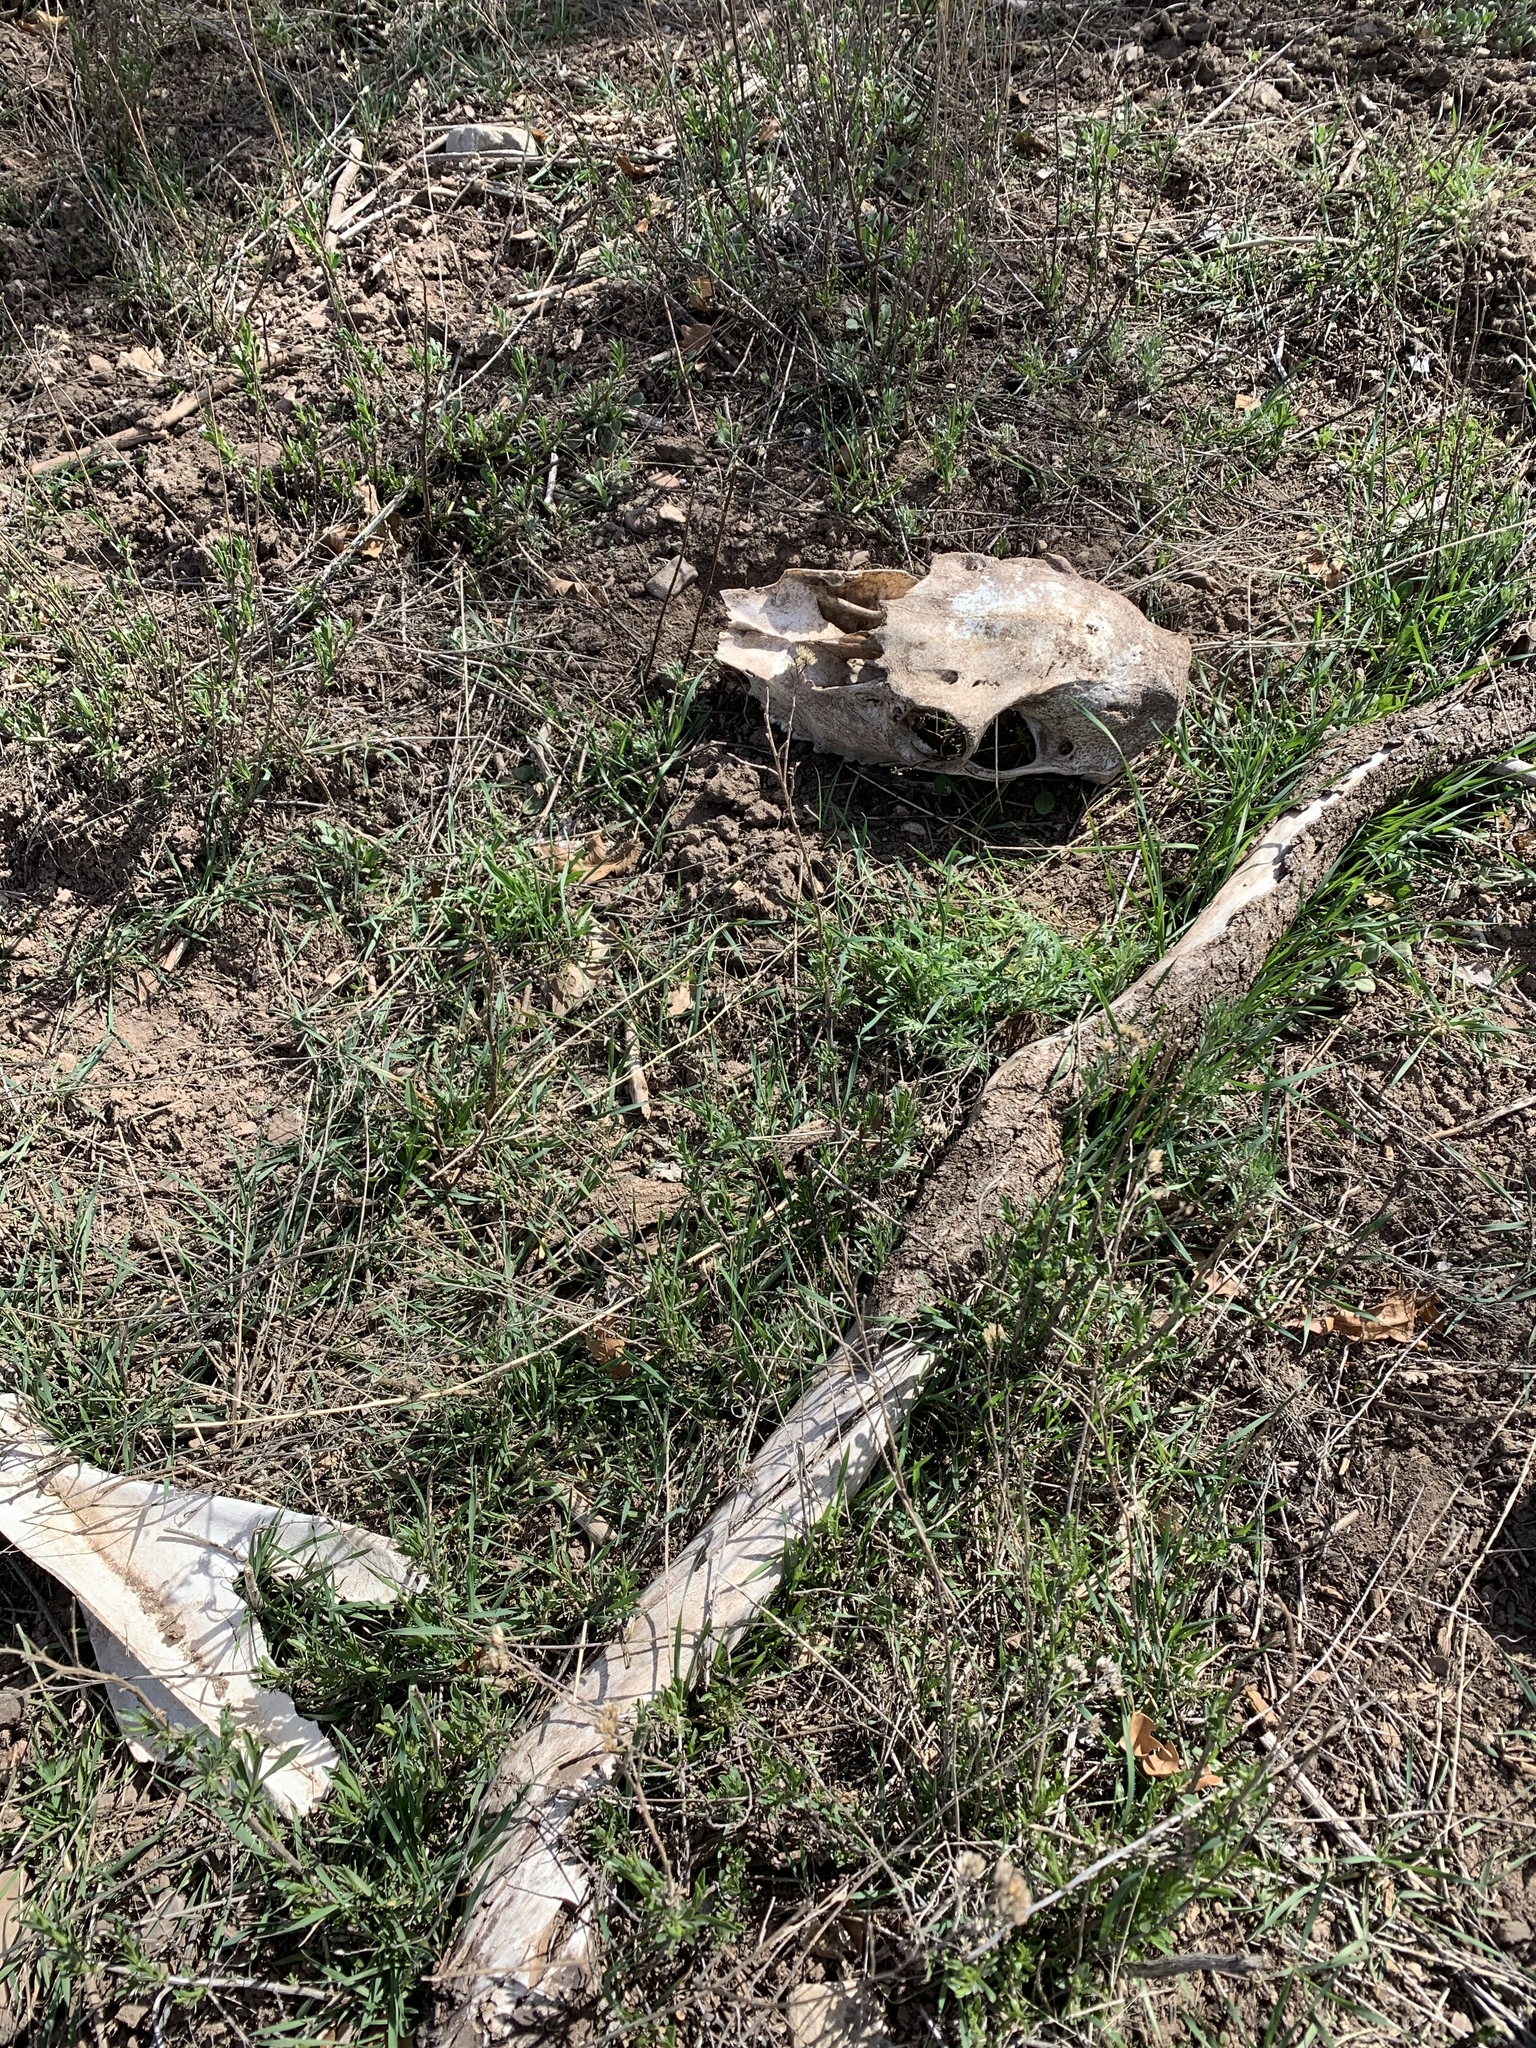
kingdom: Animalia
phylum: Chordata
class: Mammalia
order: Artiodactyla
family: Cervidae
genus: Cervus
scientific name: Cervus elaphus
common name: Red deer
